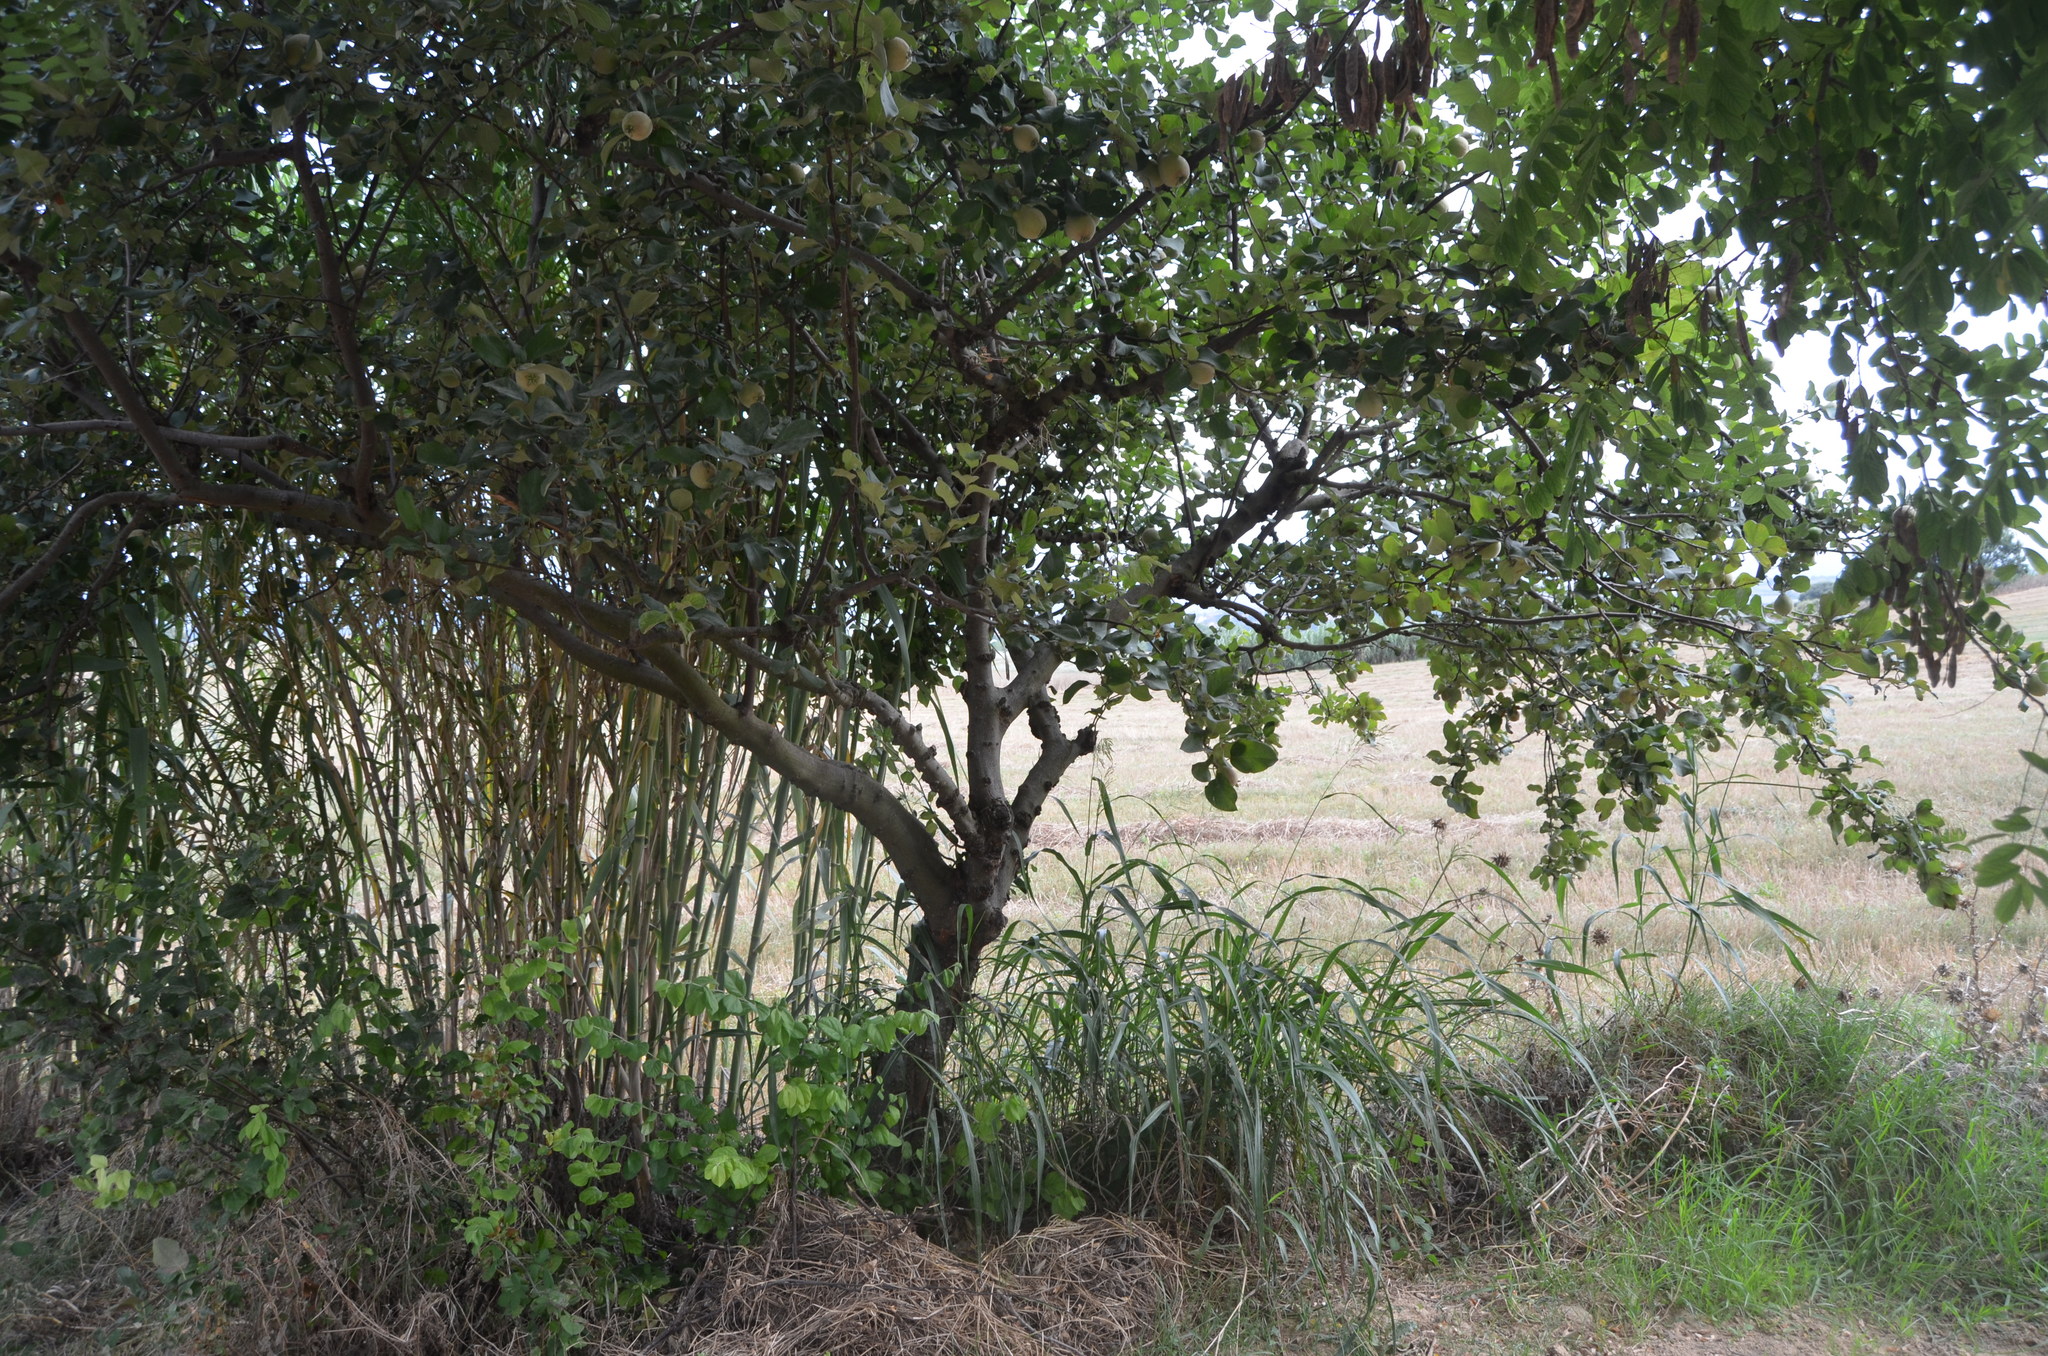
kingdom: Plantae
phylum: Tracheophyta
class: Magnoliopsida
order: Rosales
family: Rosaceae
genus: Cydonia
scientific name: Cydonia oblonga
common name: Quince
